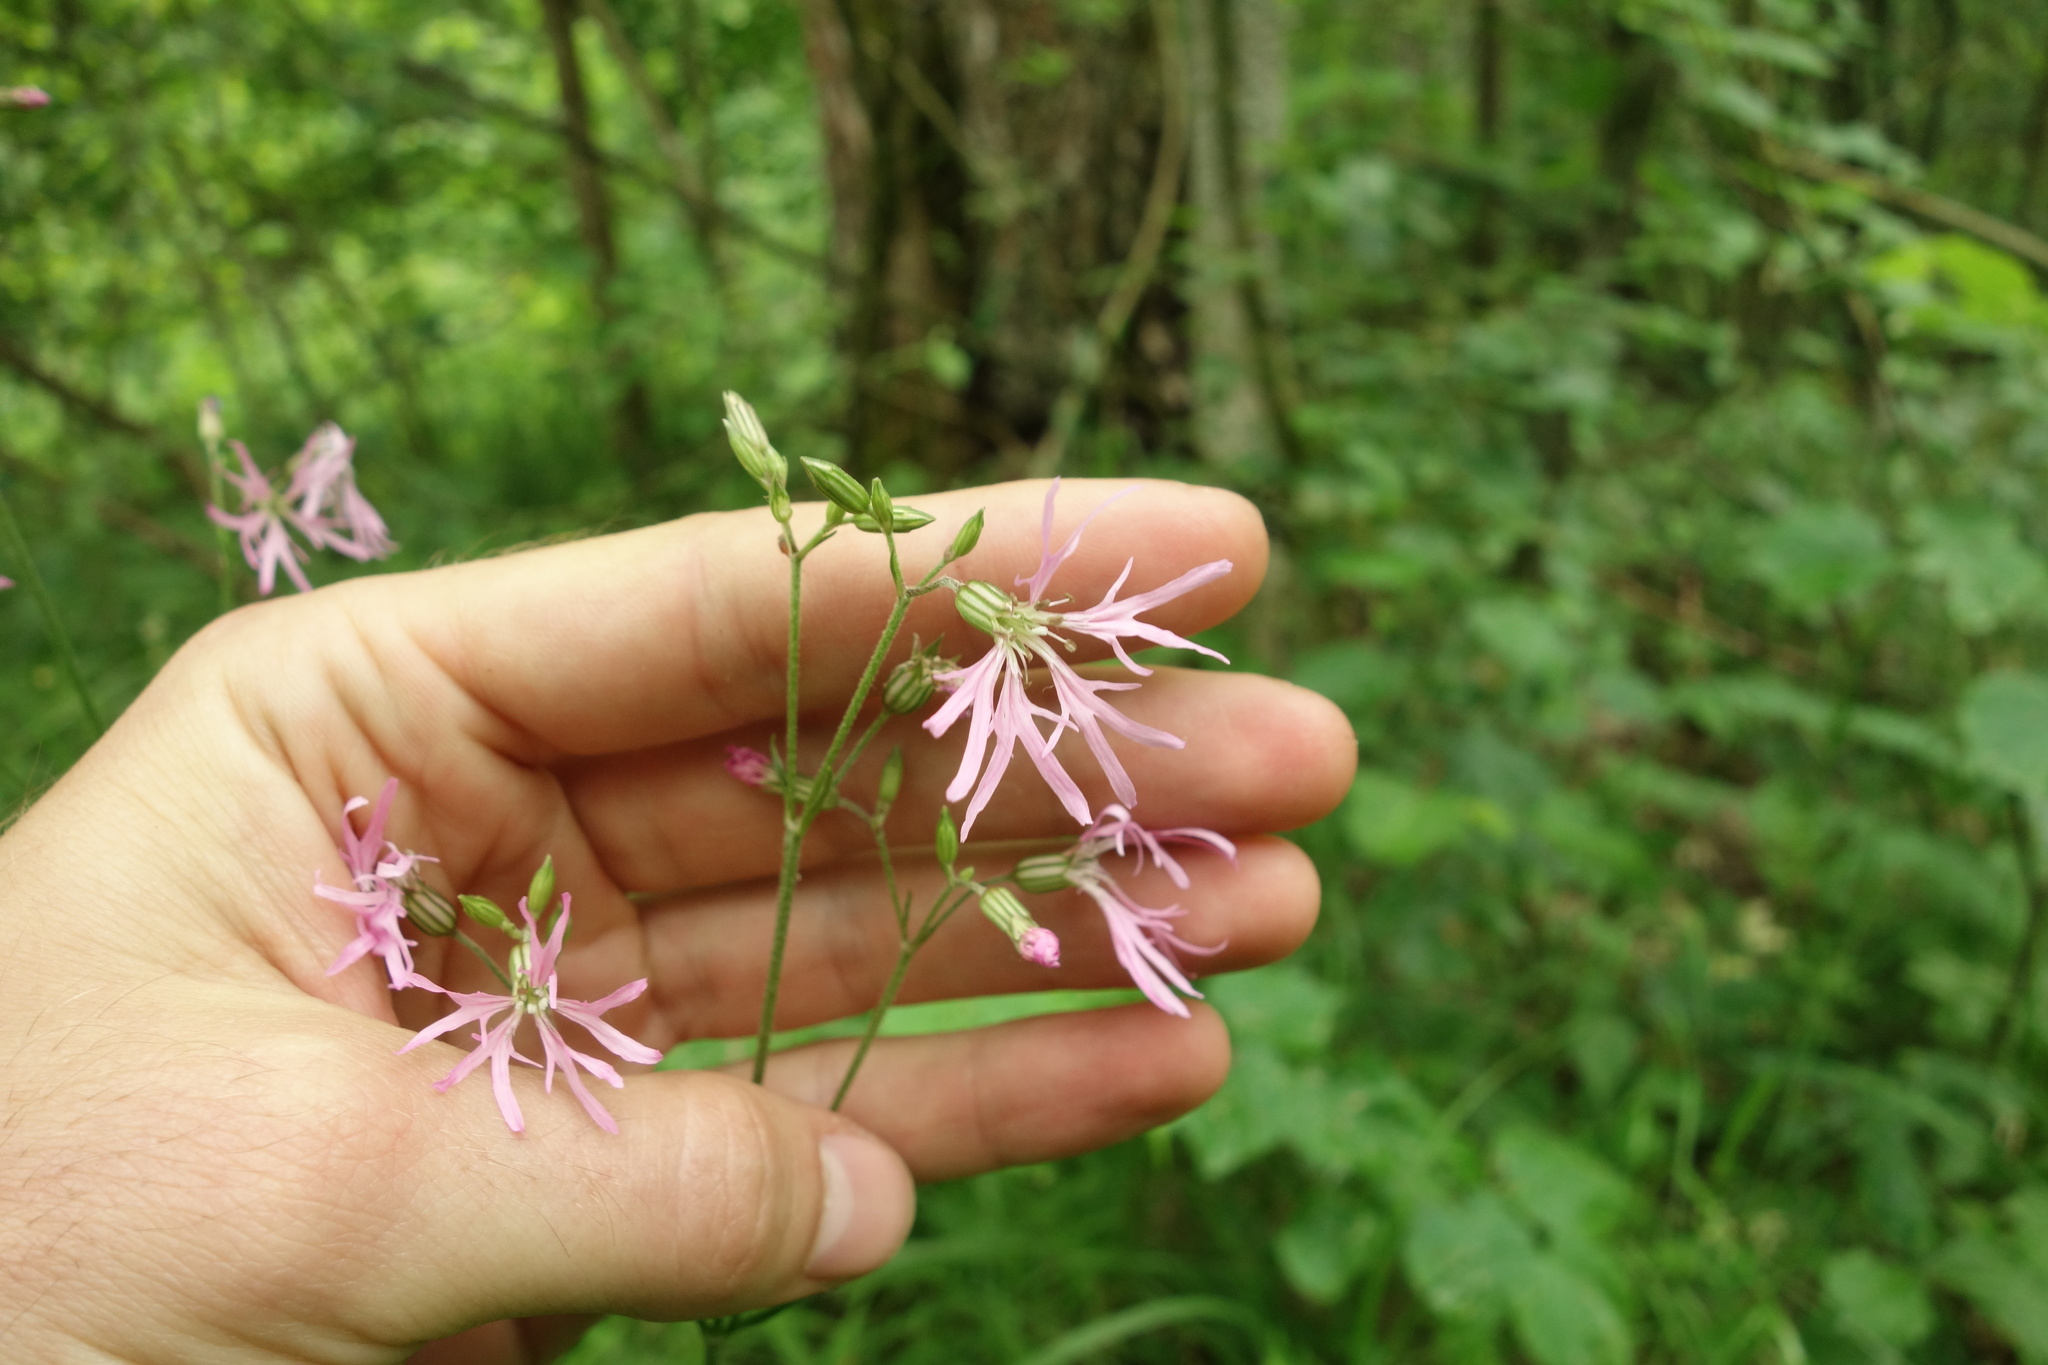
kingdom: Plantae
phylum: Tracheophyta
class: Magnoliopsida
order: Caryophyllales
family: Caryophyllaceae
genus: Silene
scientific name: Silene flos-cuculi
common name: Ragged-robin
